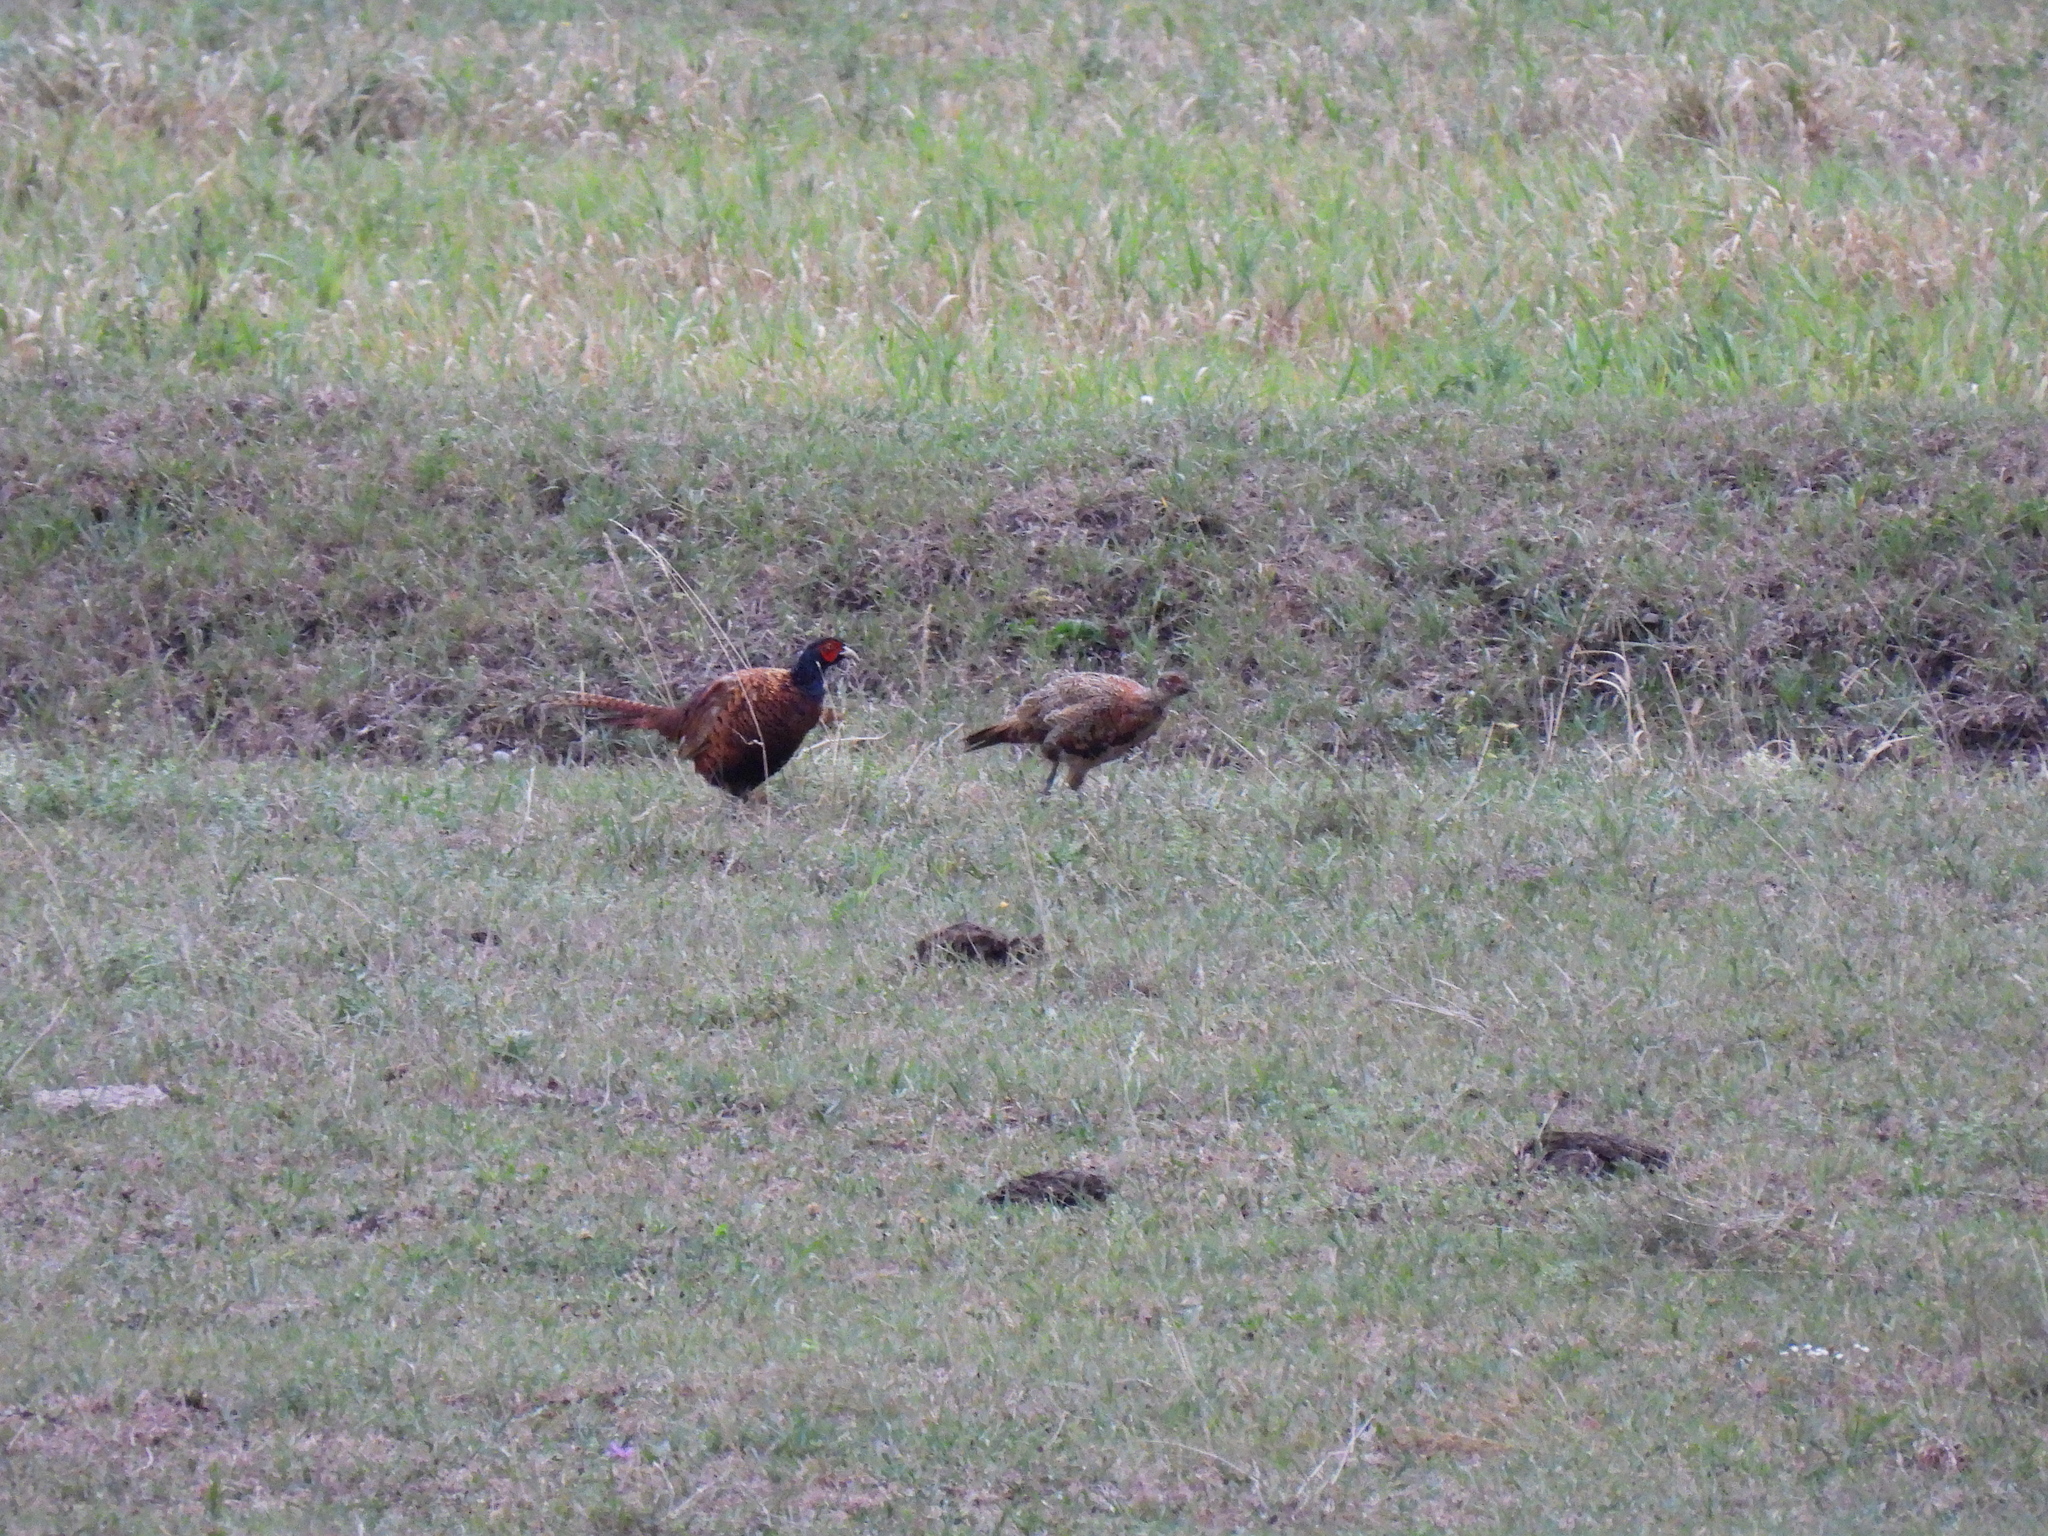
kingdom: Animalia
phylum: Chordata
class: Aves
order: Galliformes
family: Phasianidae
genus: Phasianus
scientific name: Phasianus colchicus
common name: Common pheasant
